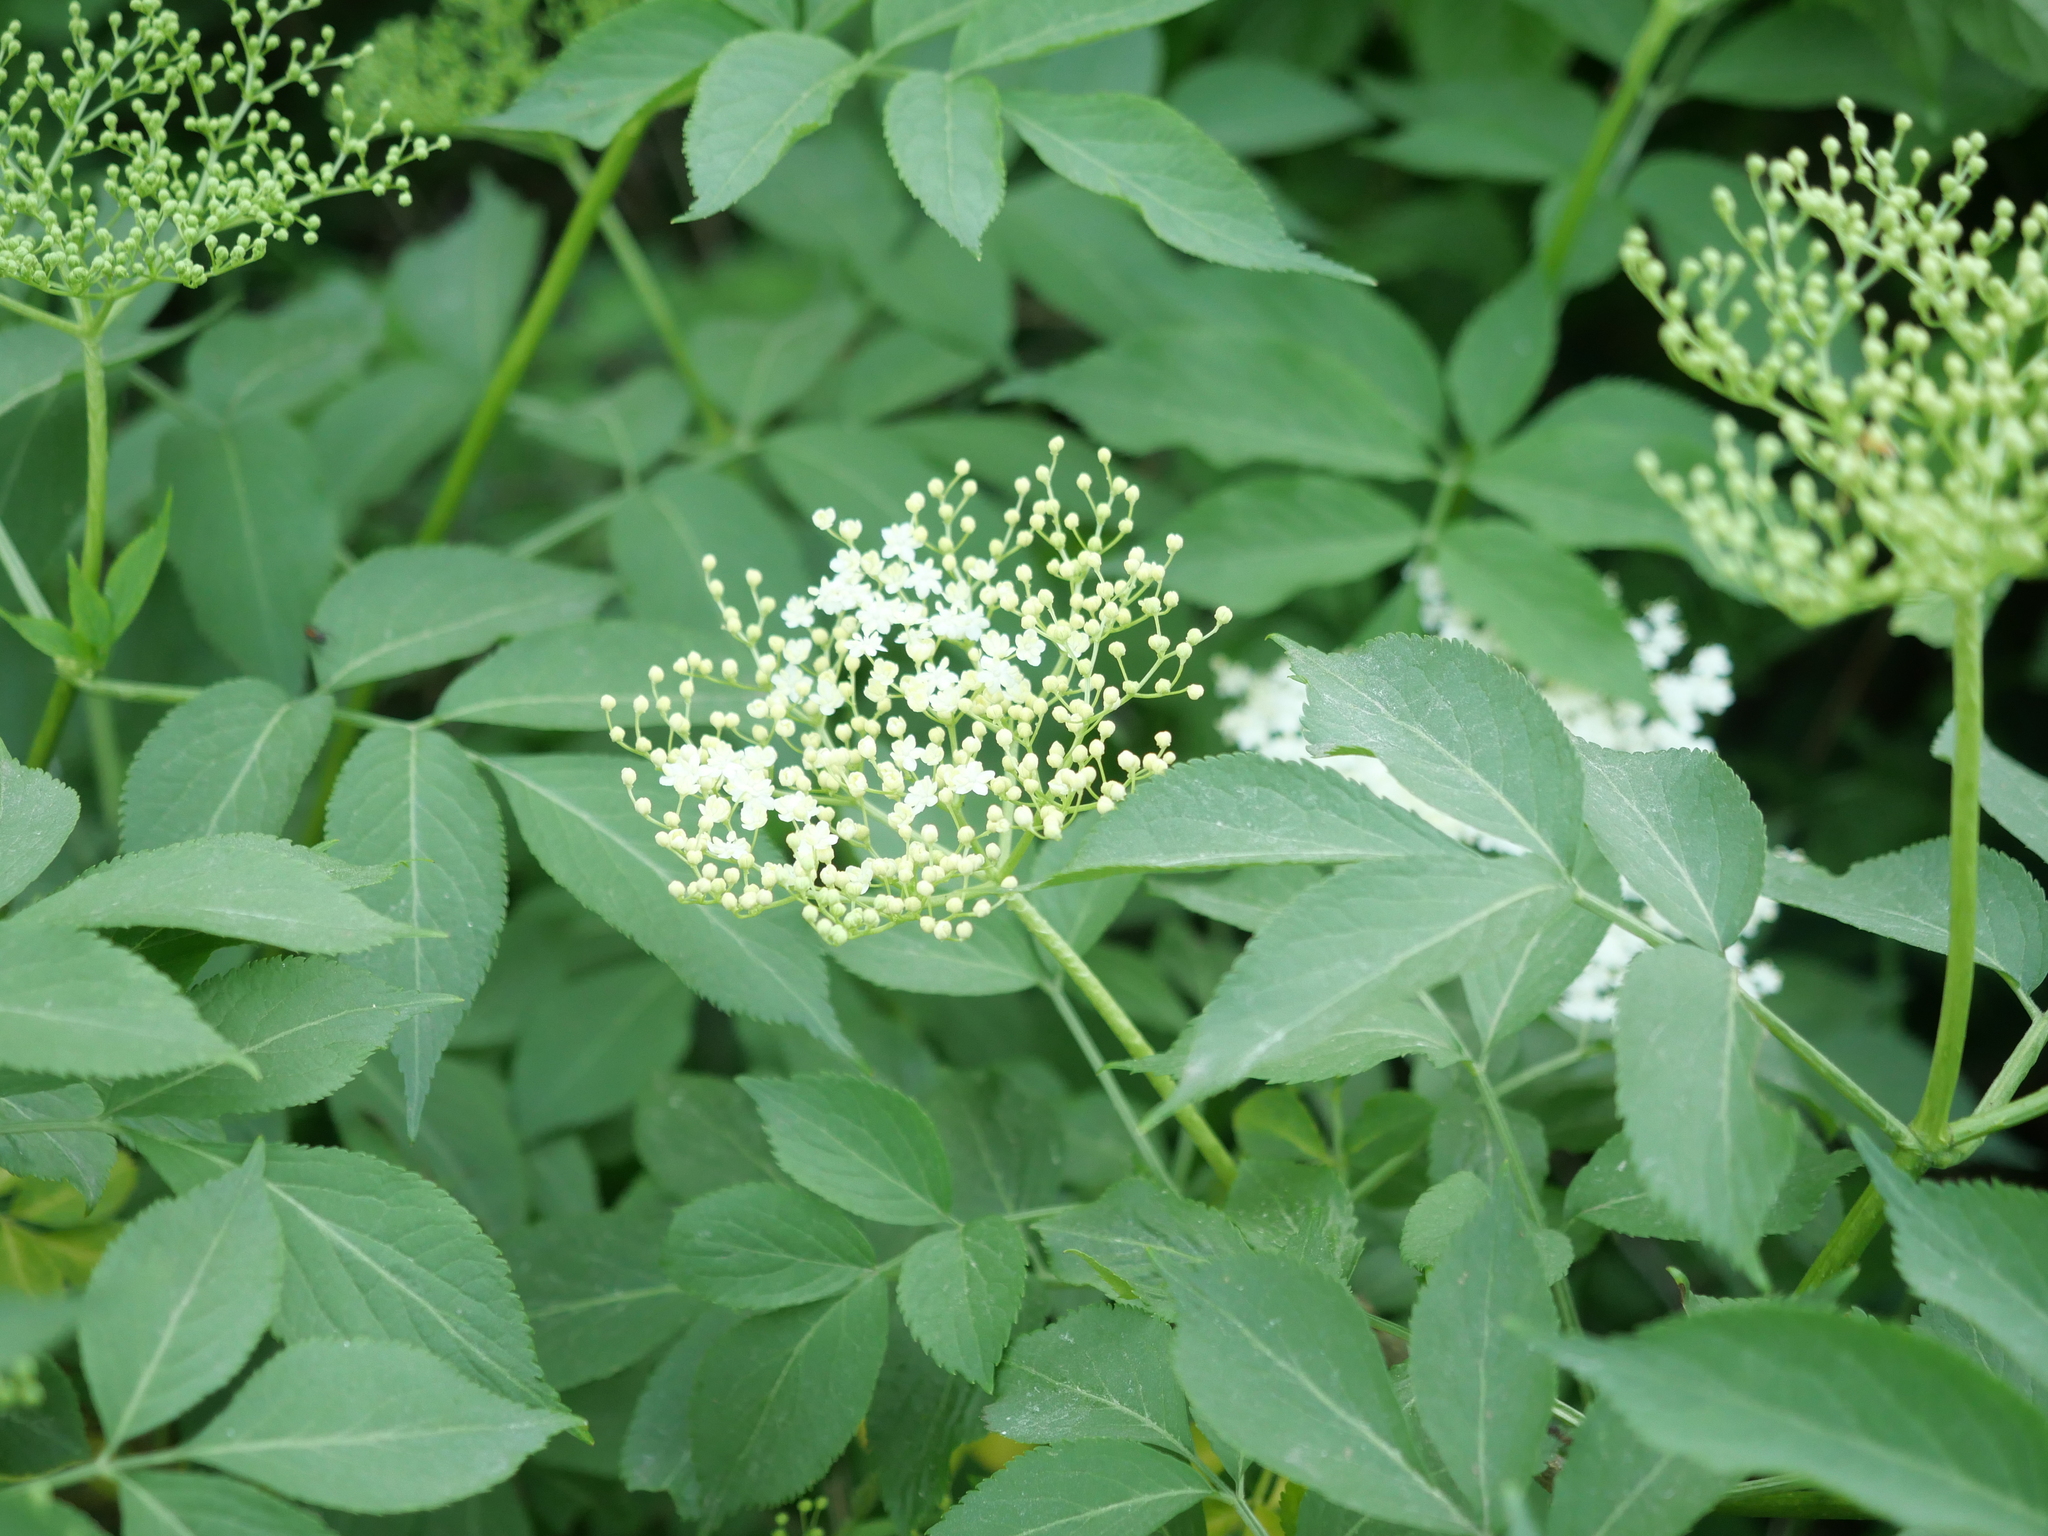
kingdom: Plantae
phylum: Tracheophyta
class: Magnoliopsida
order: Dipsacales
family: Viburnaceae
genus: Sambucus
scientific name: Sambucus nigra
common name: Elder
